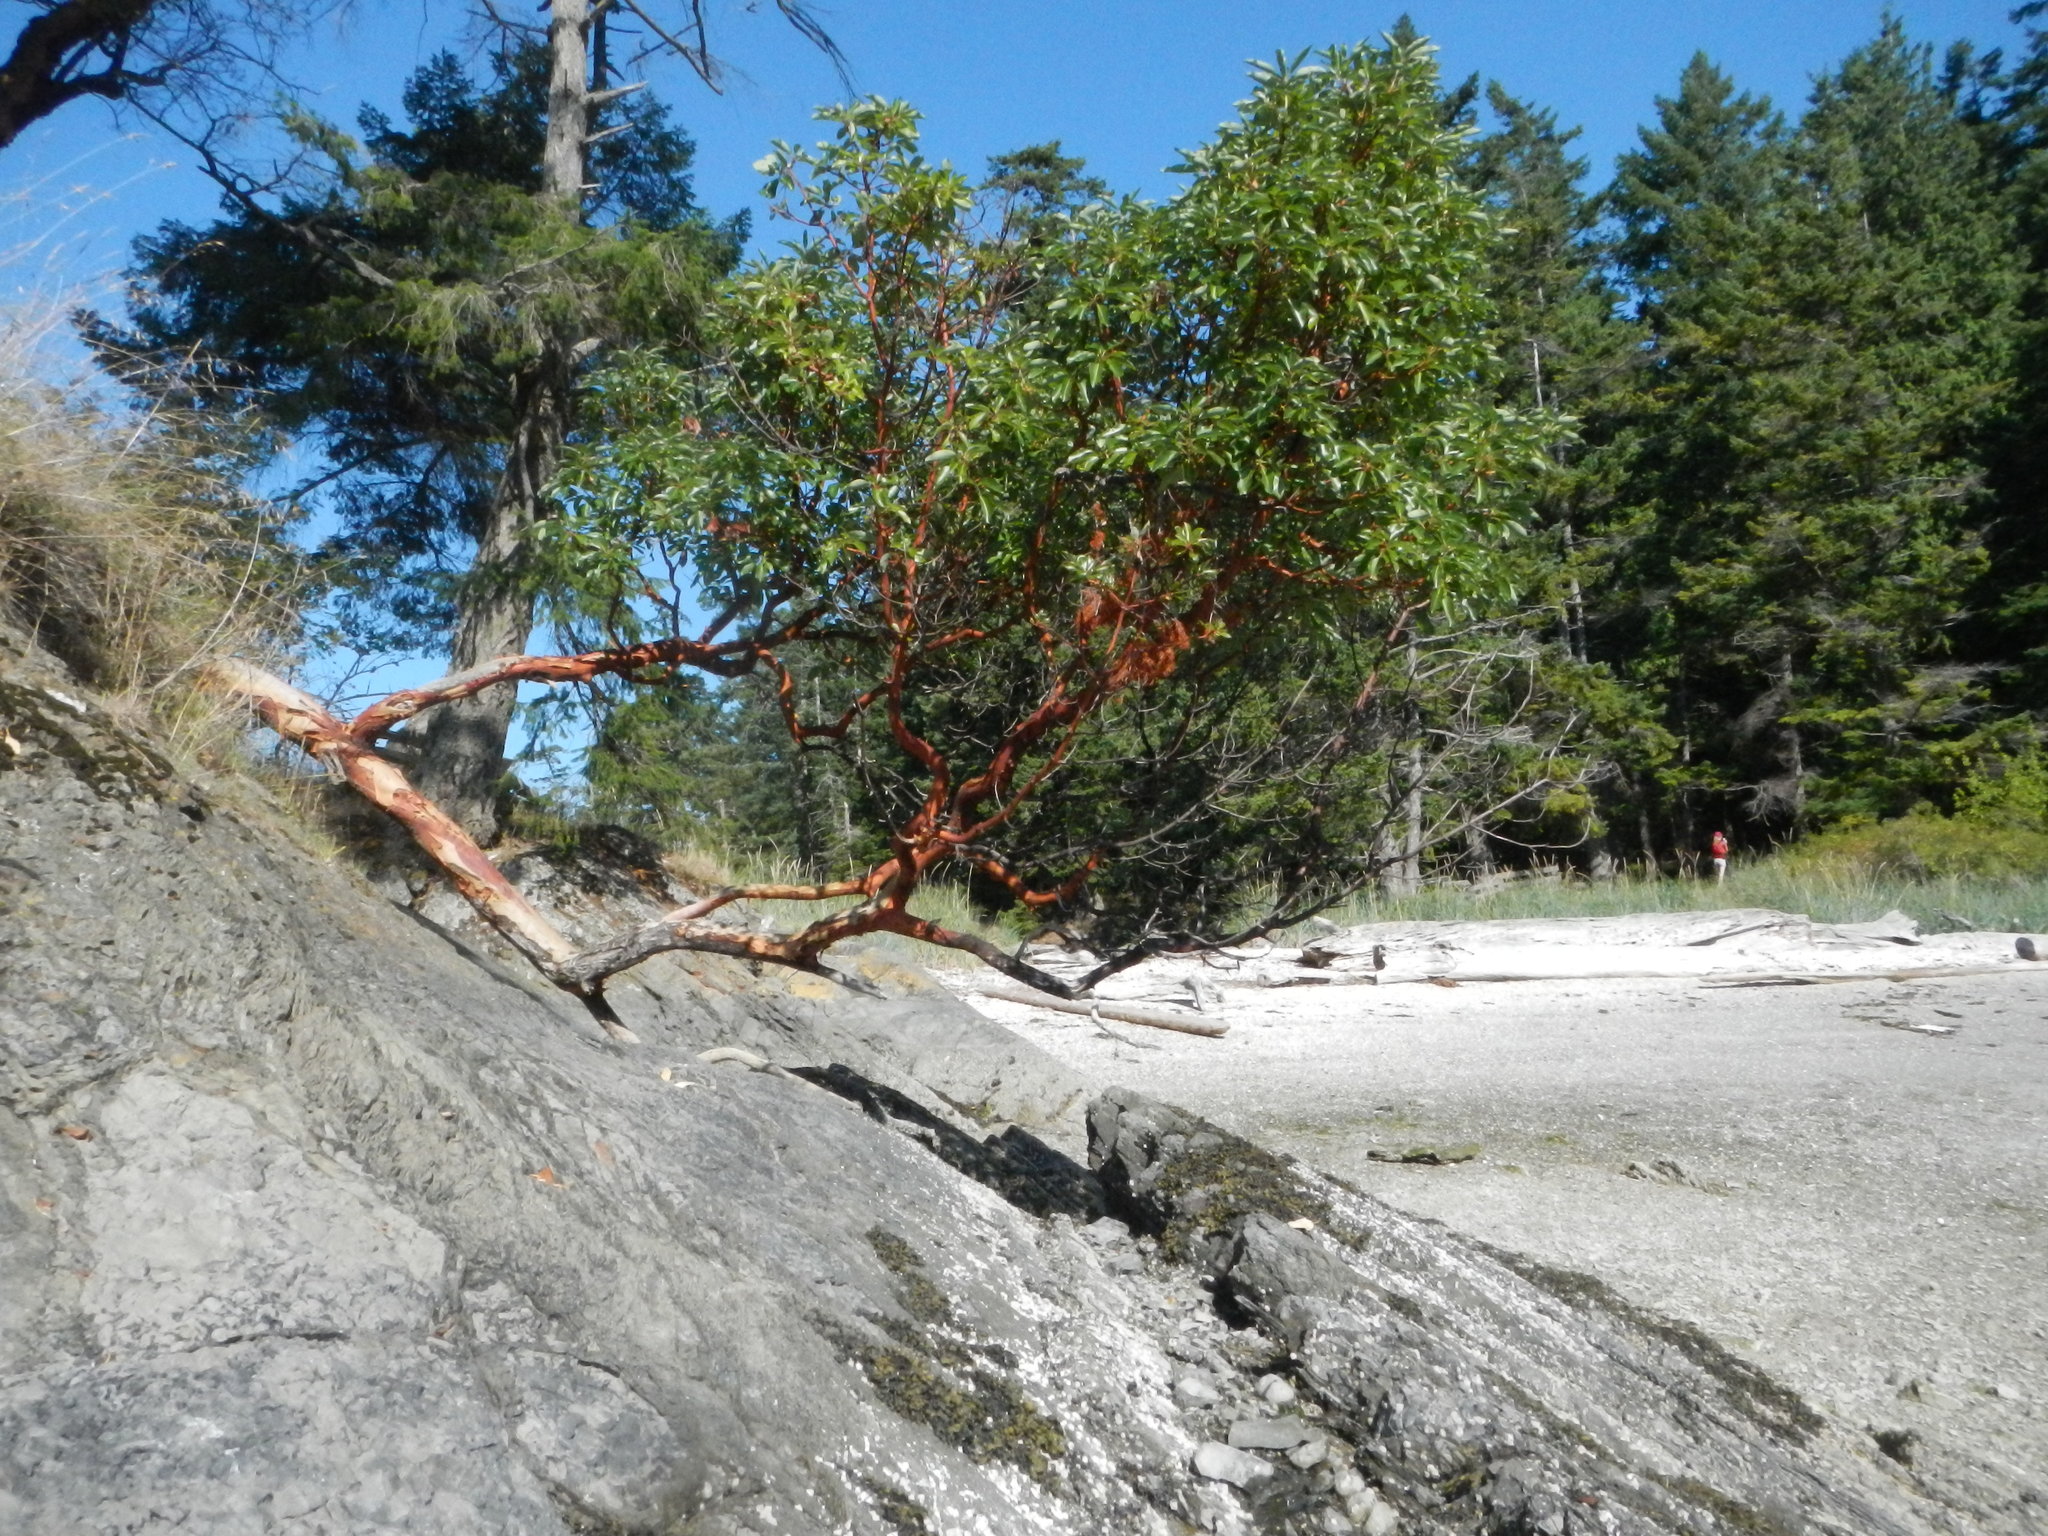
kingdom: Plantae
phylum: Tracheophyta
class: Magnoliopsida
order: Ericales
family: Ericaceae
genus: Arbutus
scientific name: Arbutus menziesii
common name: Pacific madrone
